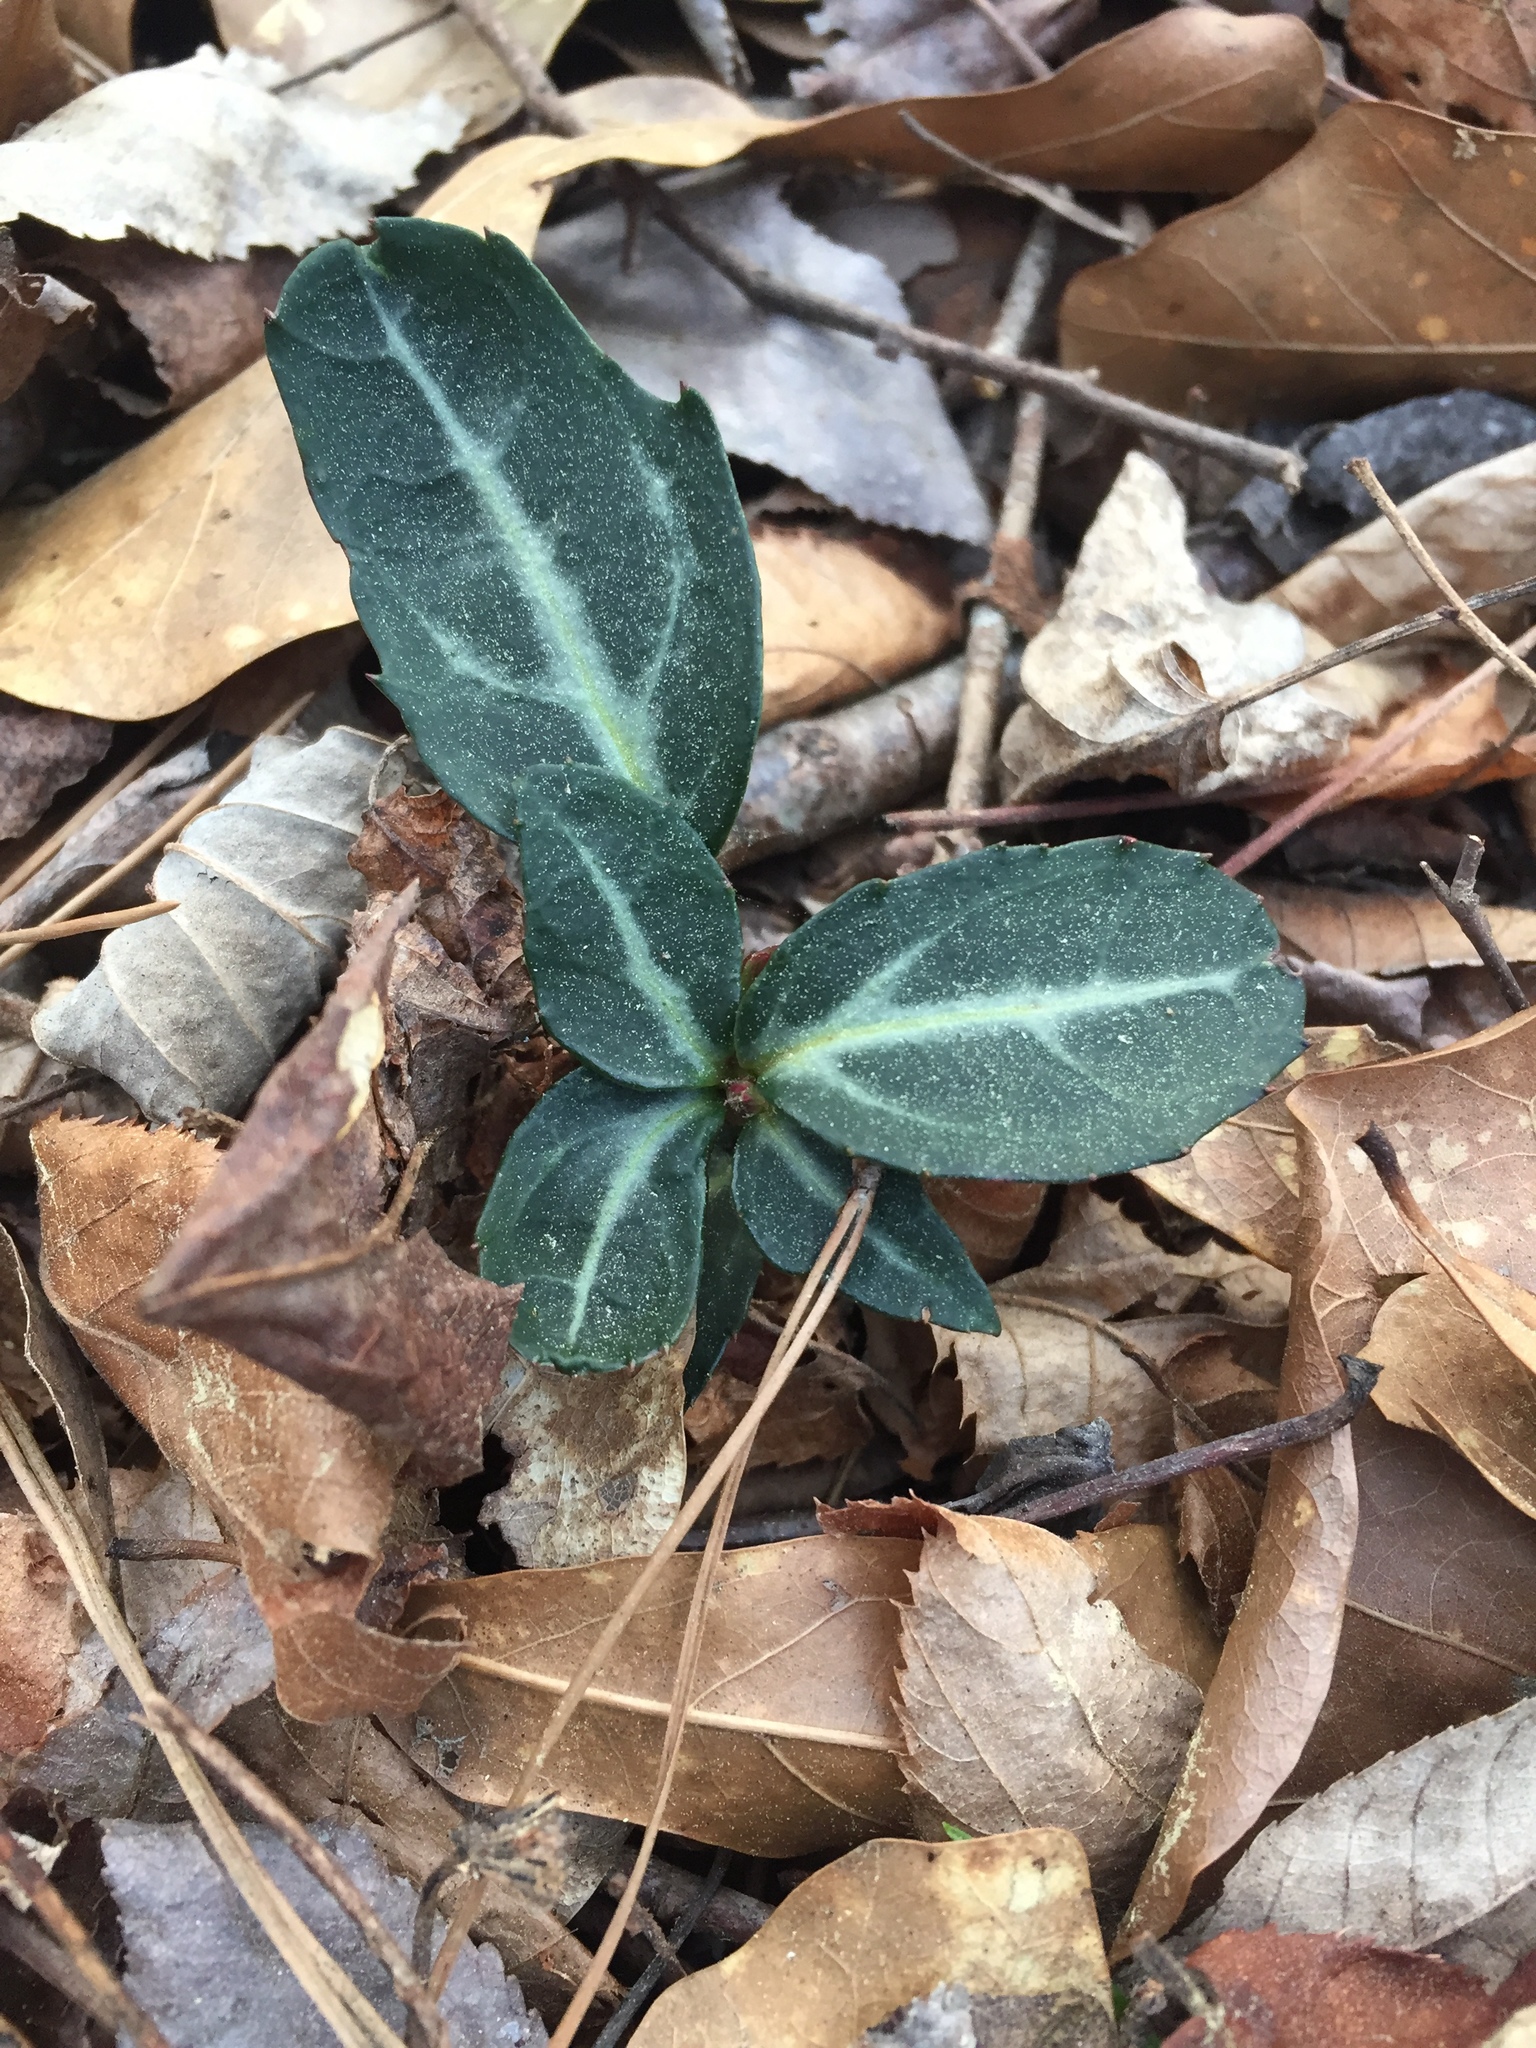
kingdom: Plantae
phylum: Tracheophyta
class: Magnoliopsida
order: Ericales
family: Ericaceae
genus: Chimaphila
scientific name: Chimaphila maculata
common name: Spotted pipsissewa
